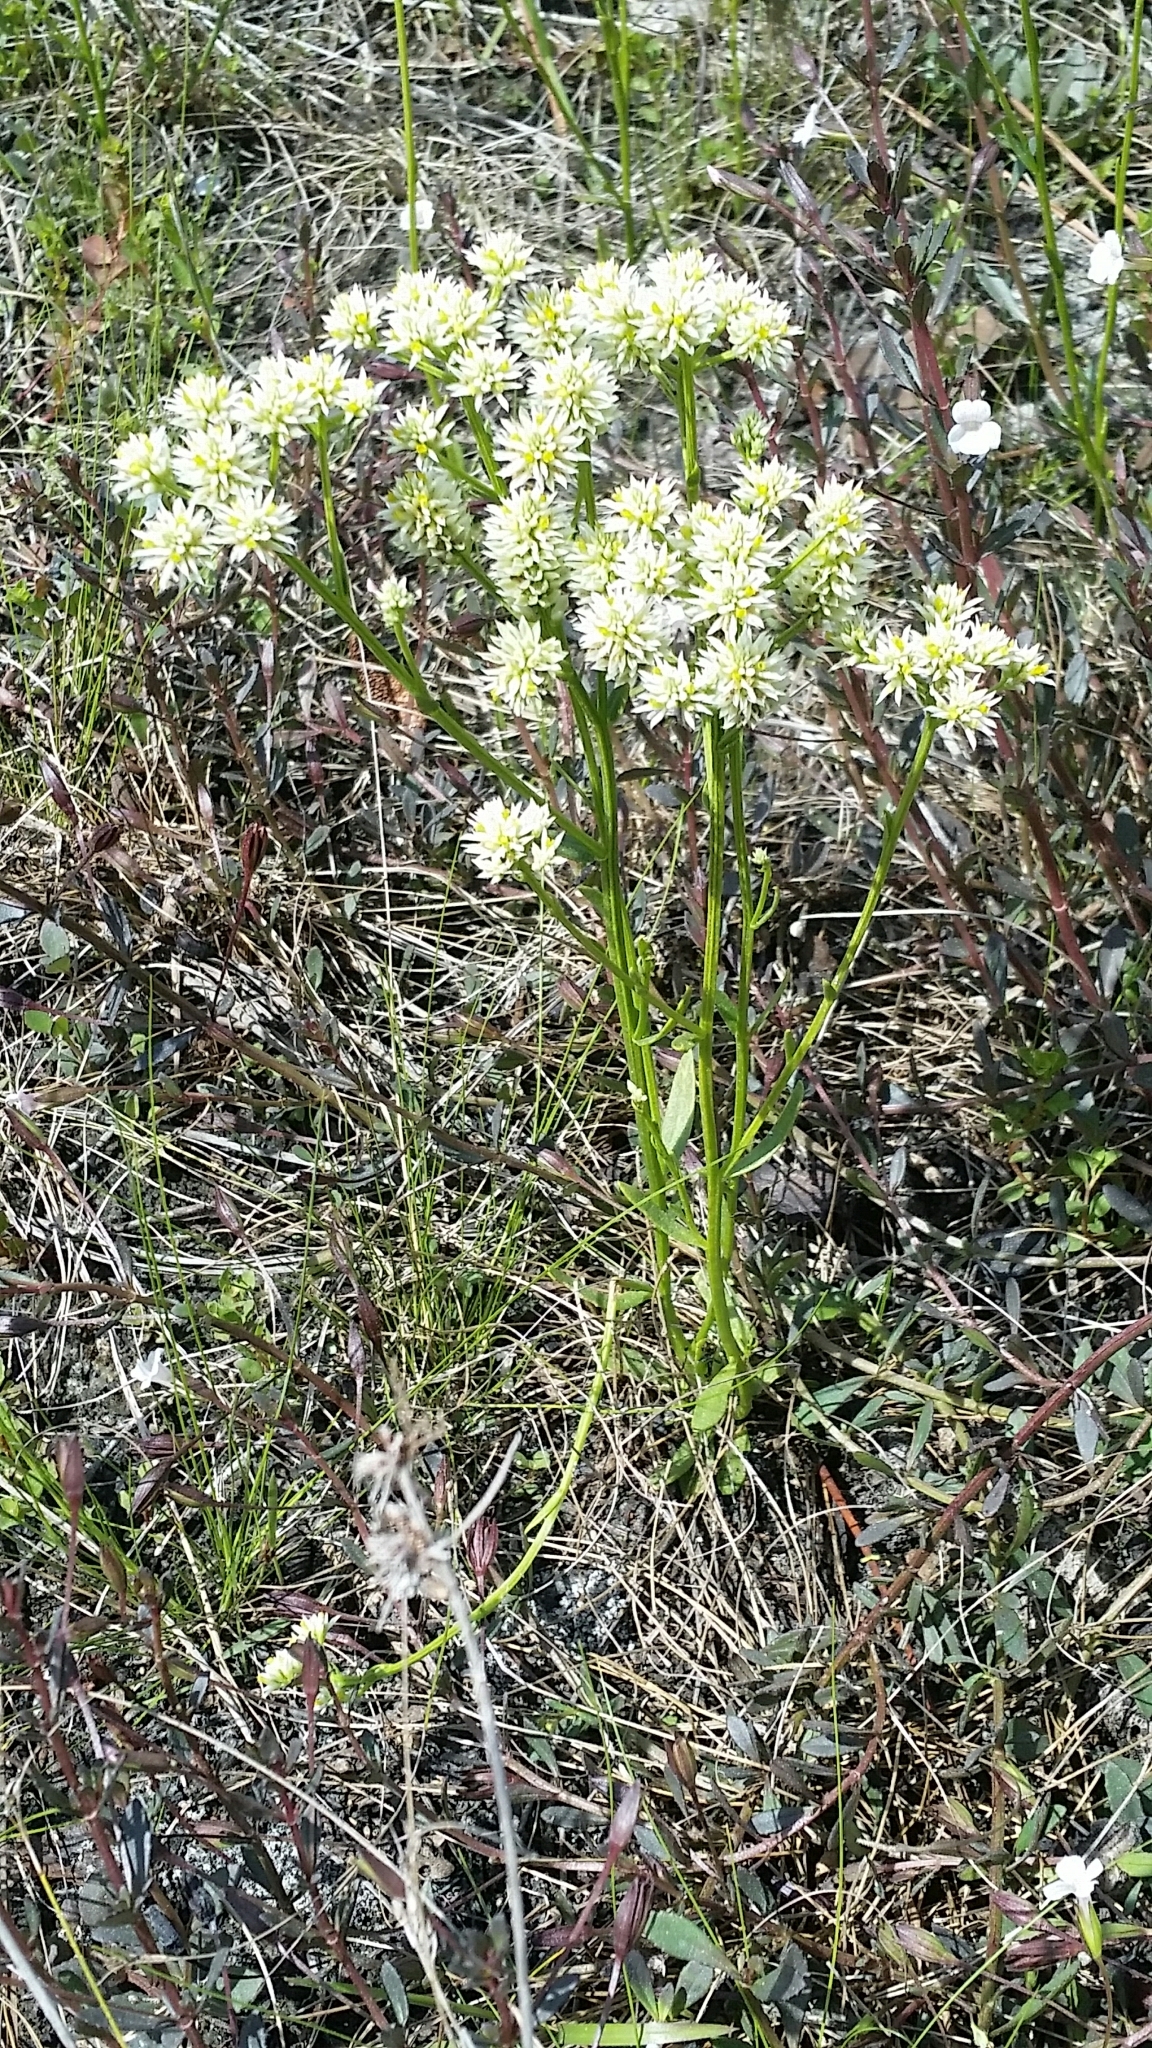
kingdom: Plantae
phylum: Tracheophyta
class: Magnoliopsida
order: Fabales
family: Polygalaceae
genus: Polygala
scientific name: Polygala baldwinii
